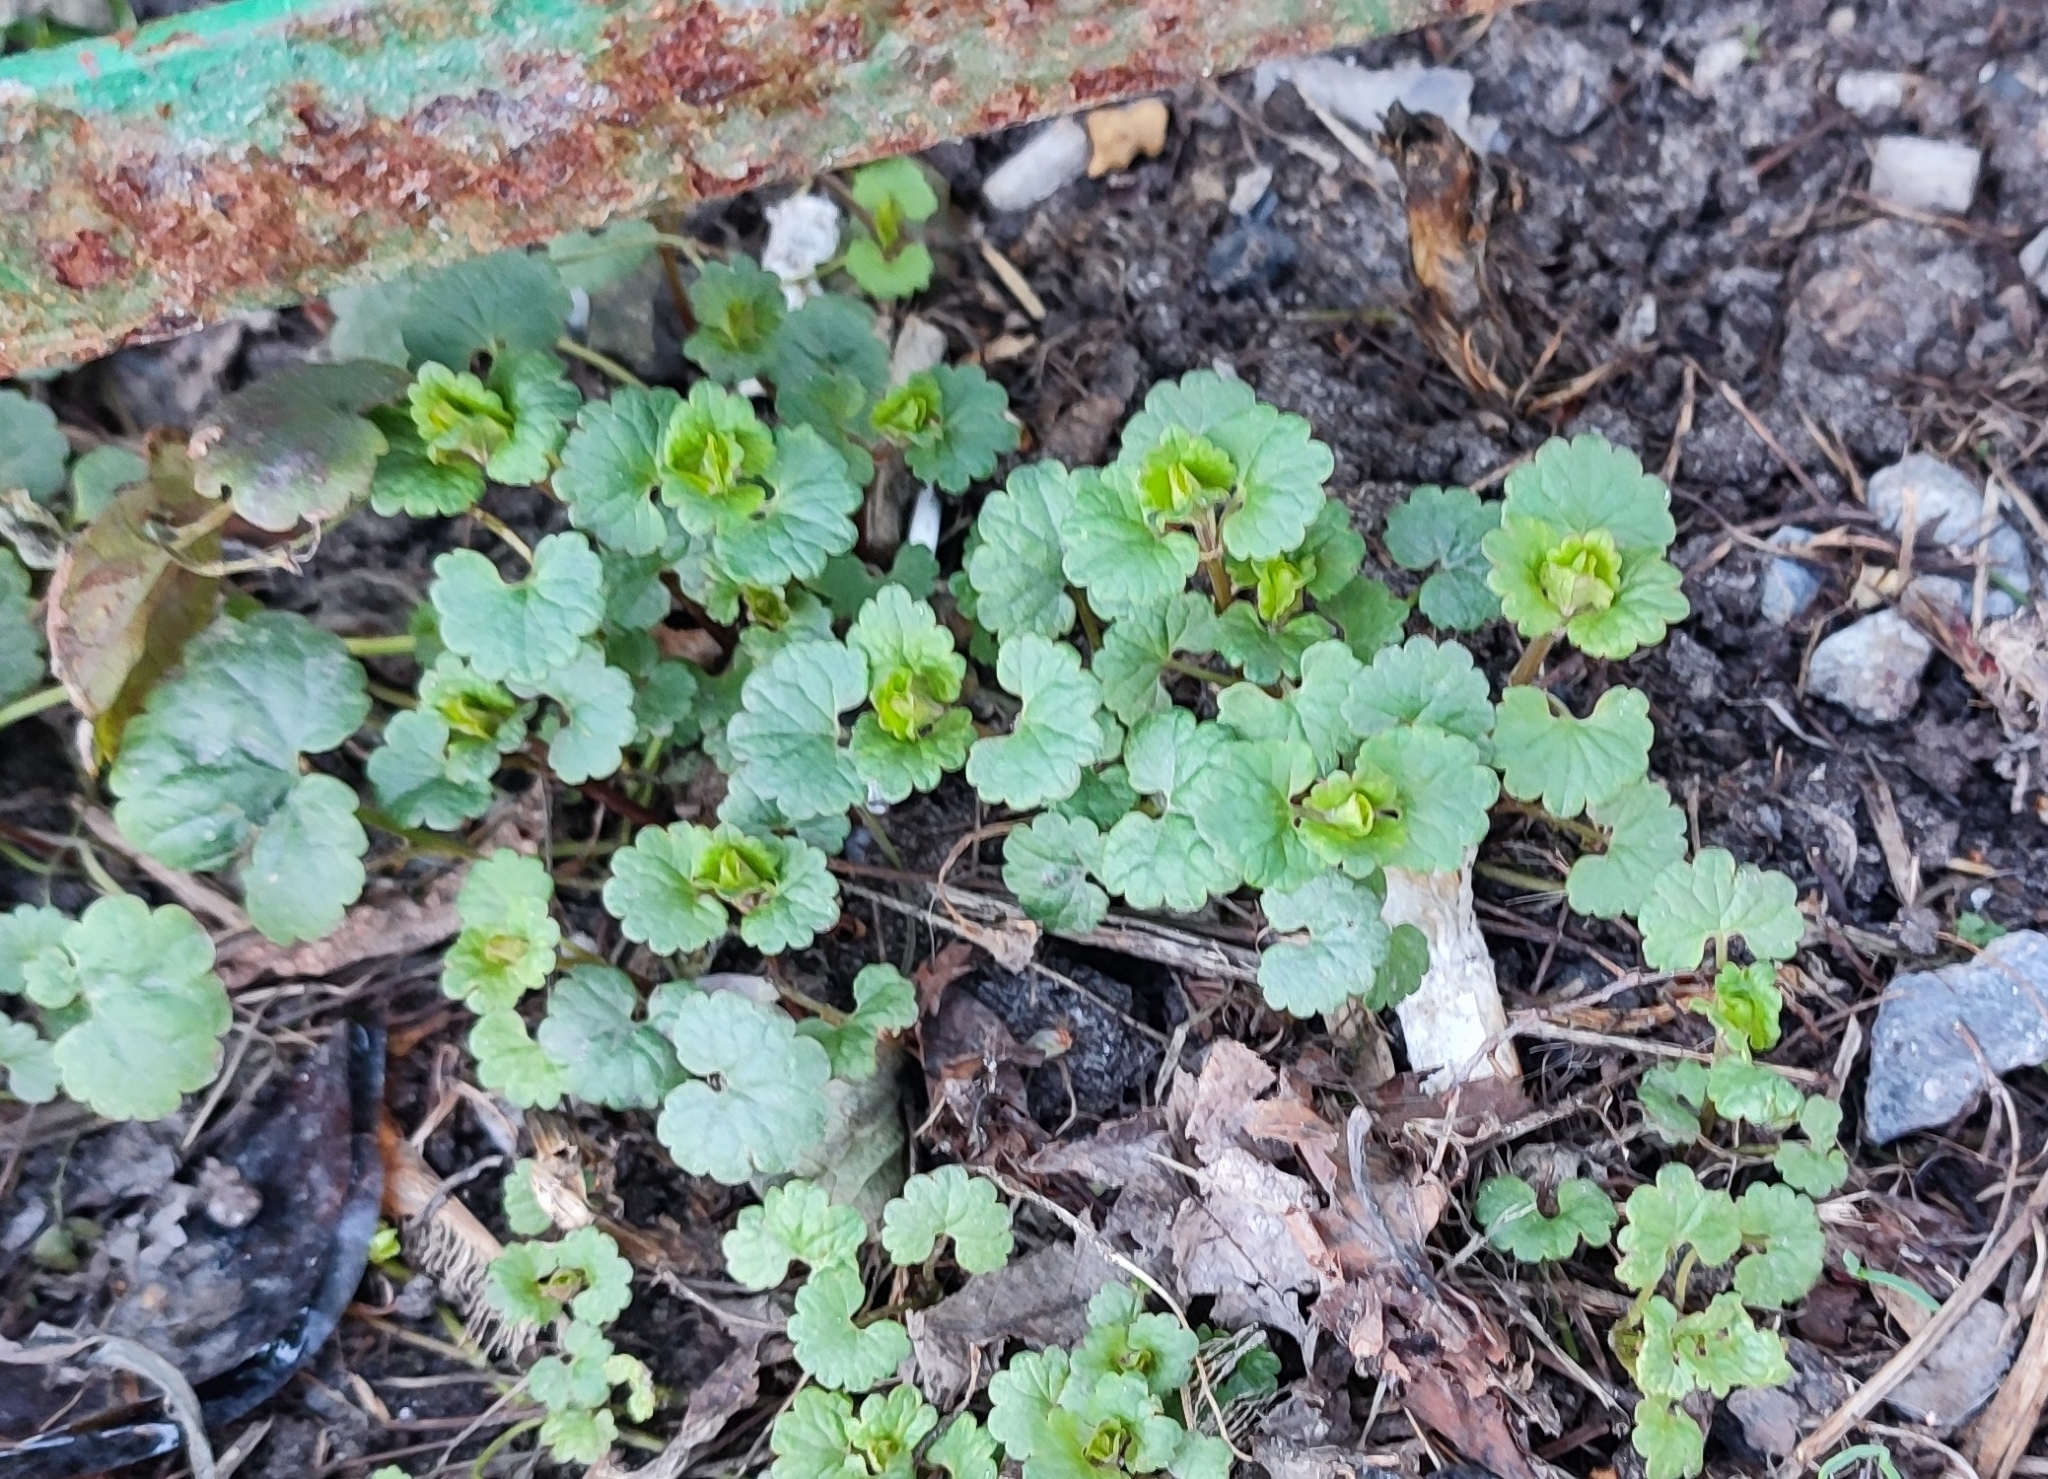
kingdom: Plantae
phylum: Tracheophyta
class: Magnoliopsida
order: Lamiales
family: Lamiaceae
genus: Glechoma
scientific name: Glechoma hederacea
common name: Ground ivy
